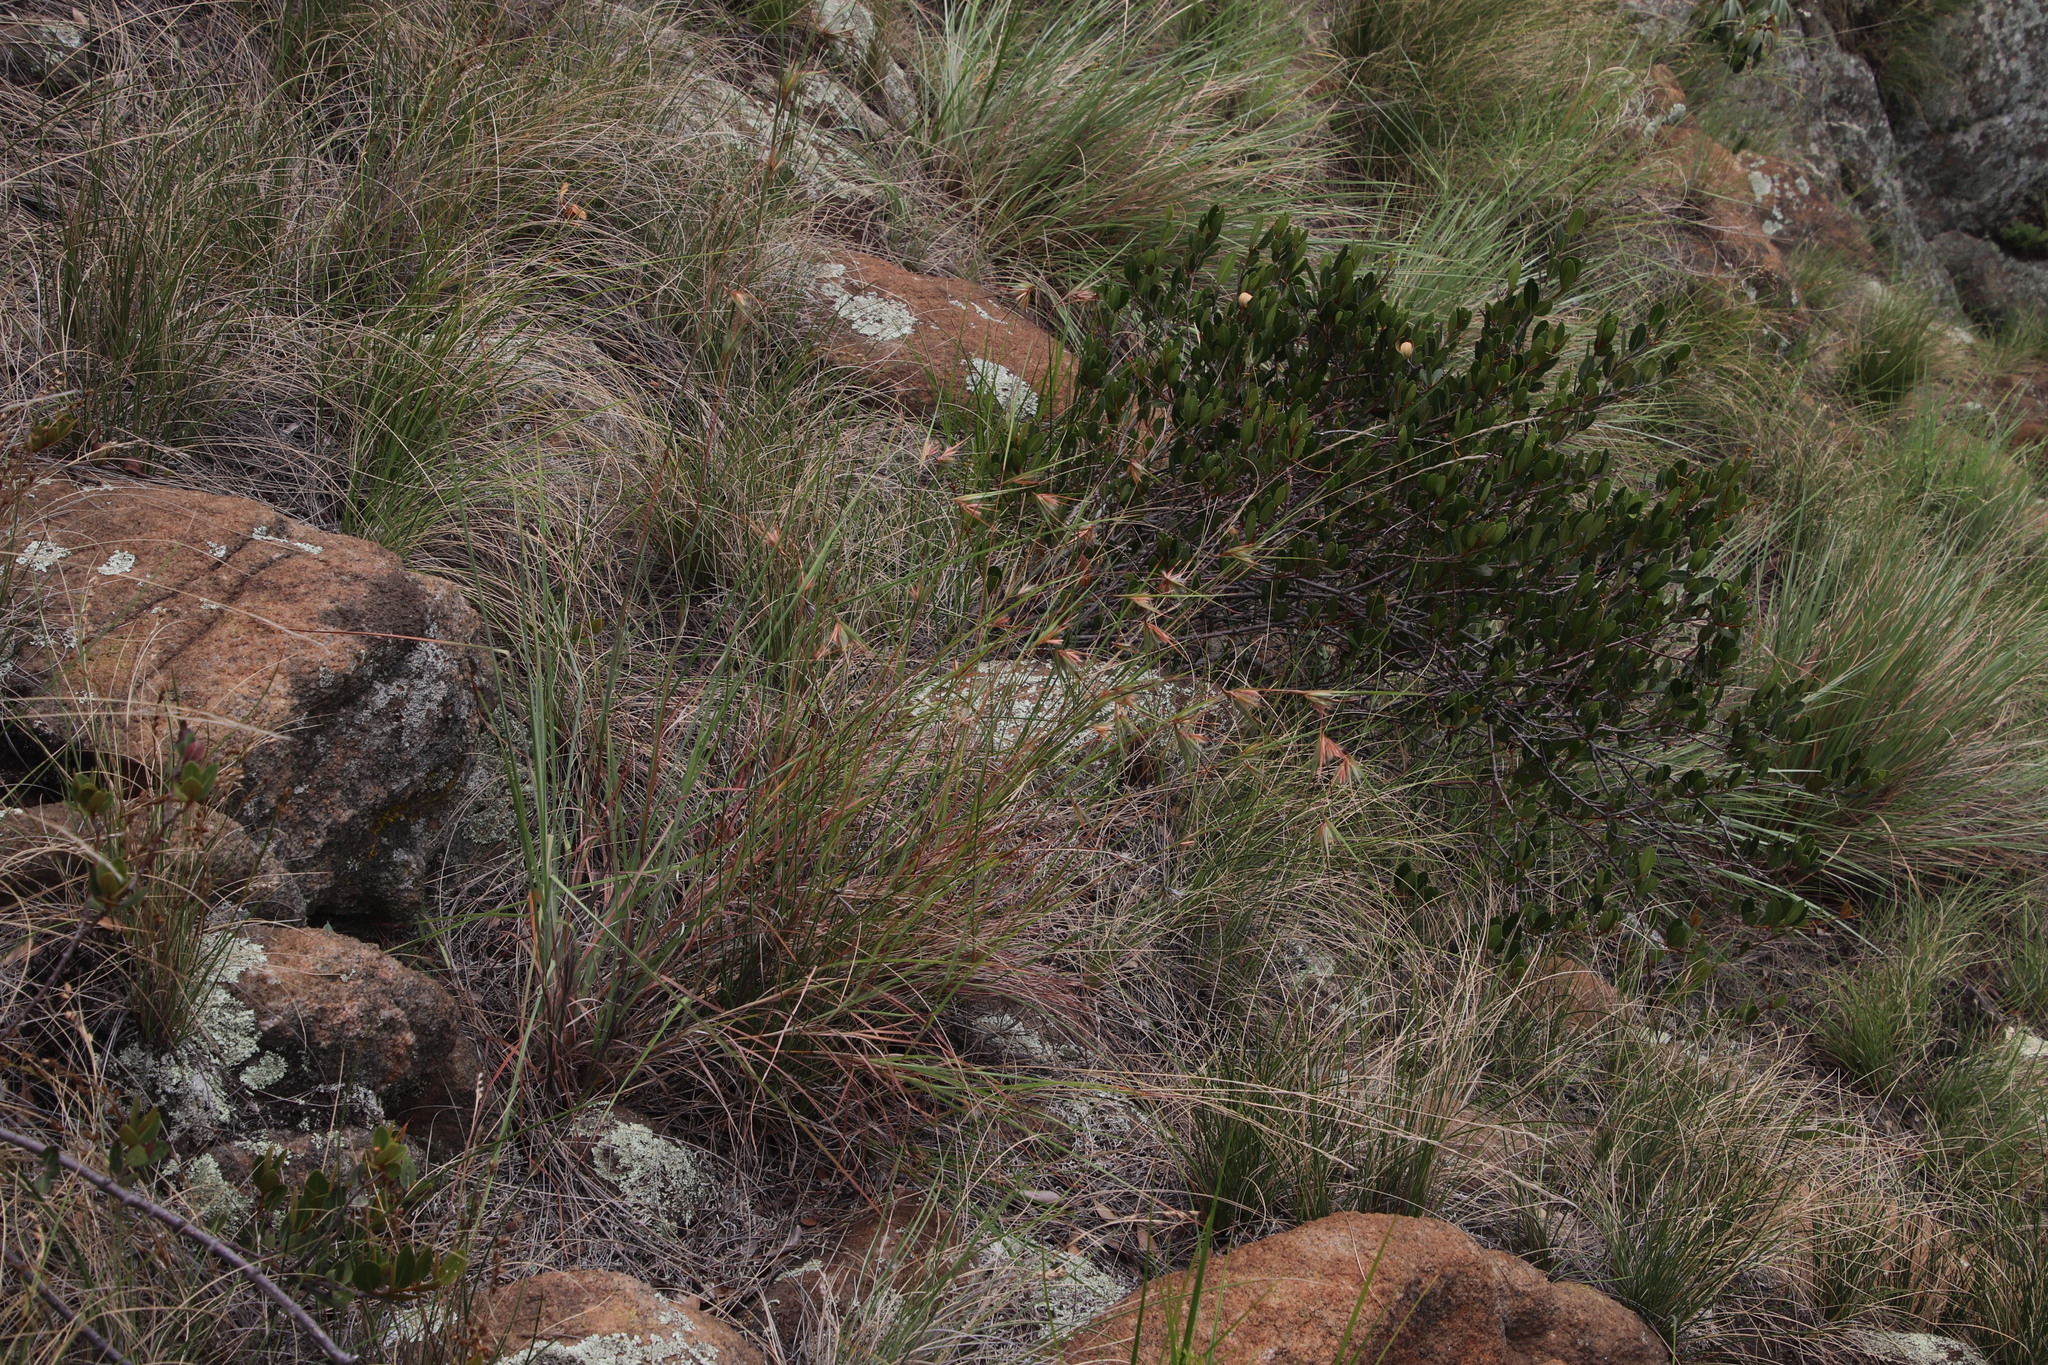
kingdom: Plantae
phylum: Tracheophyta
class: Liliopsida
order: Poales
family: Poaceae
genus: Themeda
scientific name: Themeda triandra
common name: Kangaroo grass
